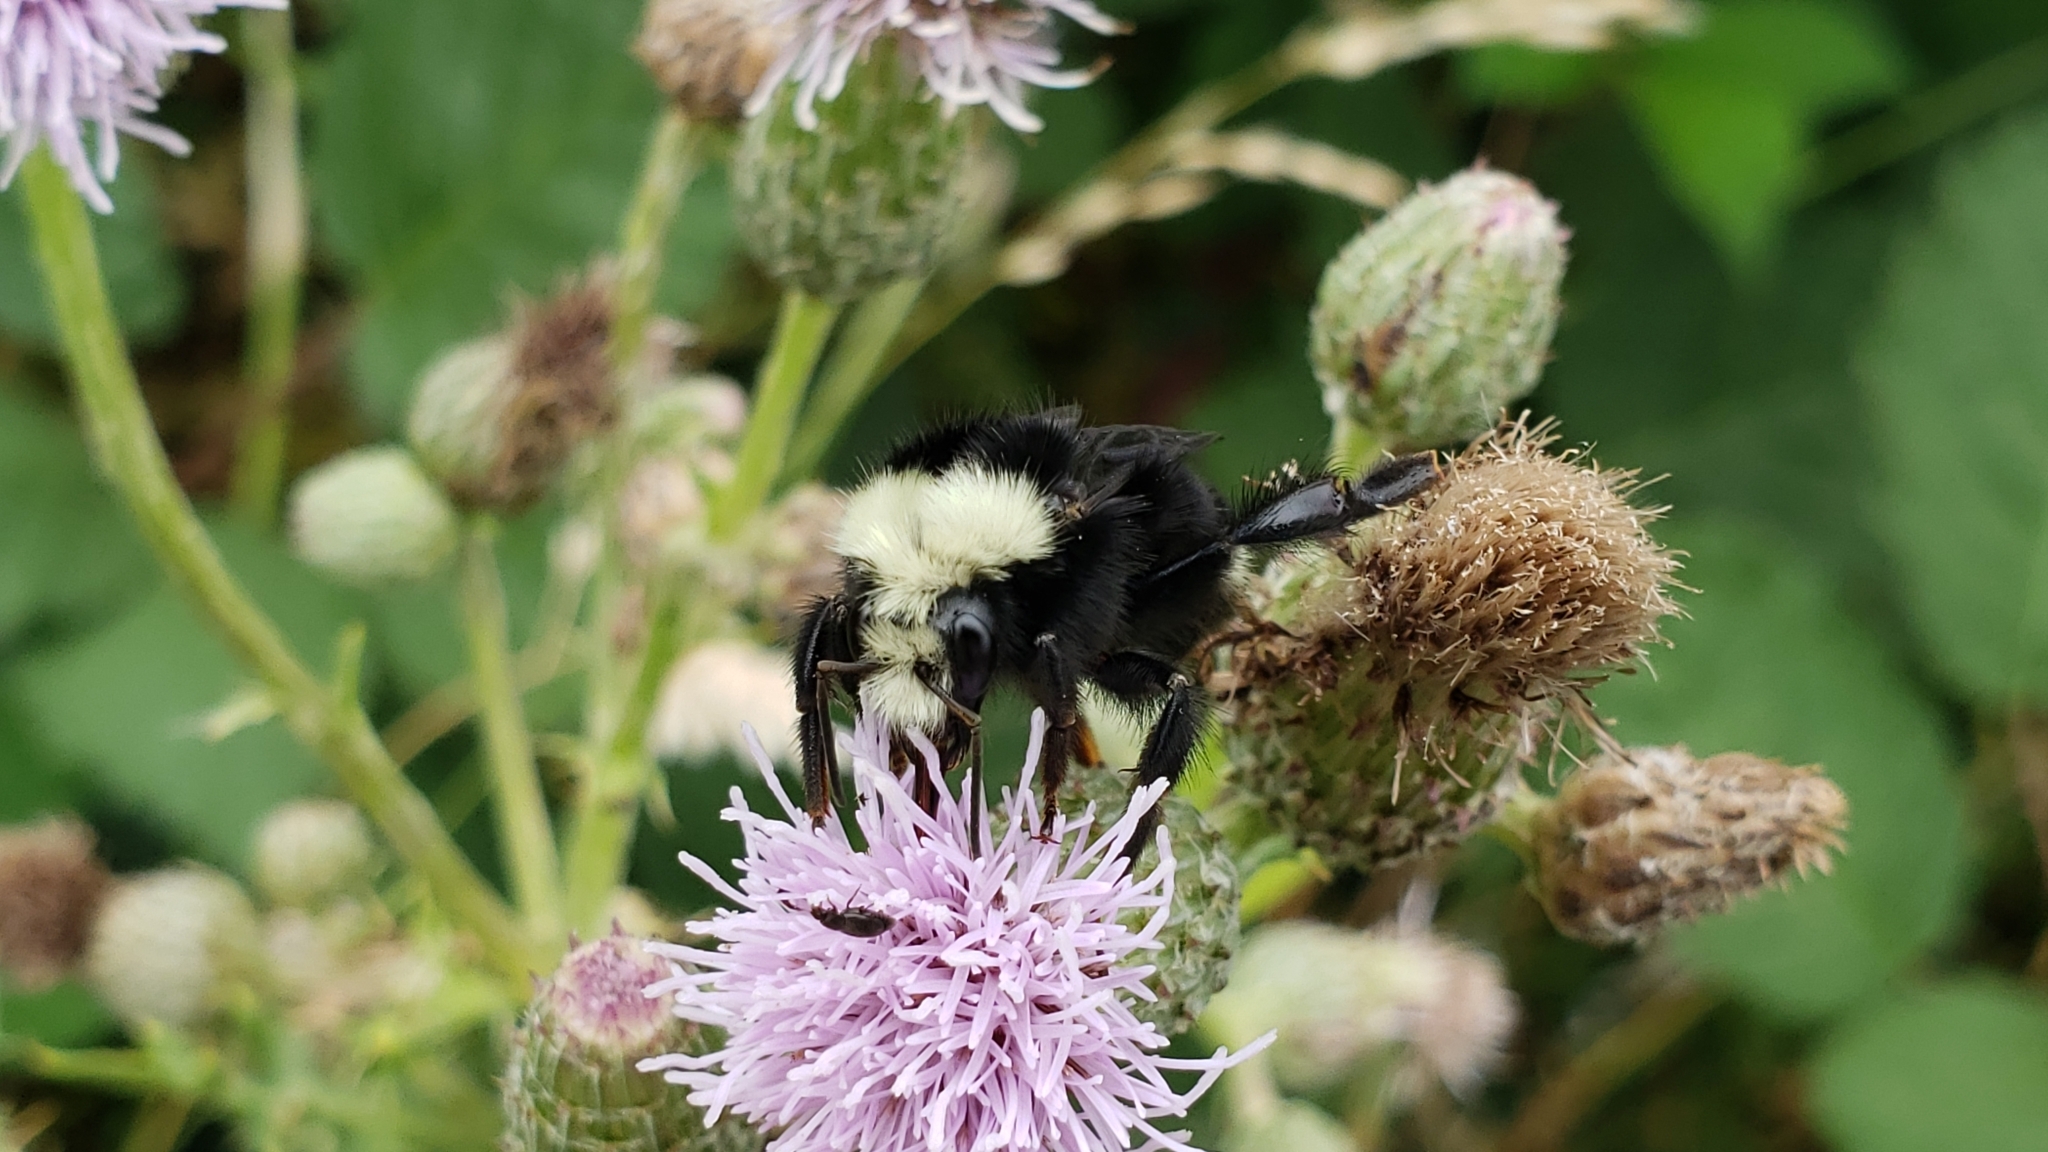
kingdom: Animalia
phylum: Arthropoda
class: Insecta
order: Hymenoptera
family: Apidae
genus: Bombus
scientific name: Bombus vosnesenskii
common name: Vosnesensky bumble bee
